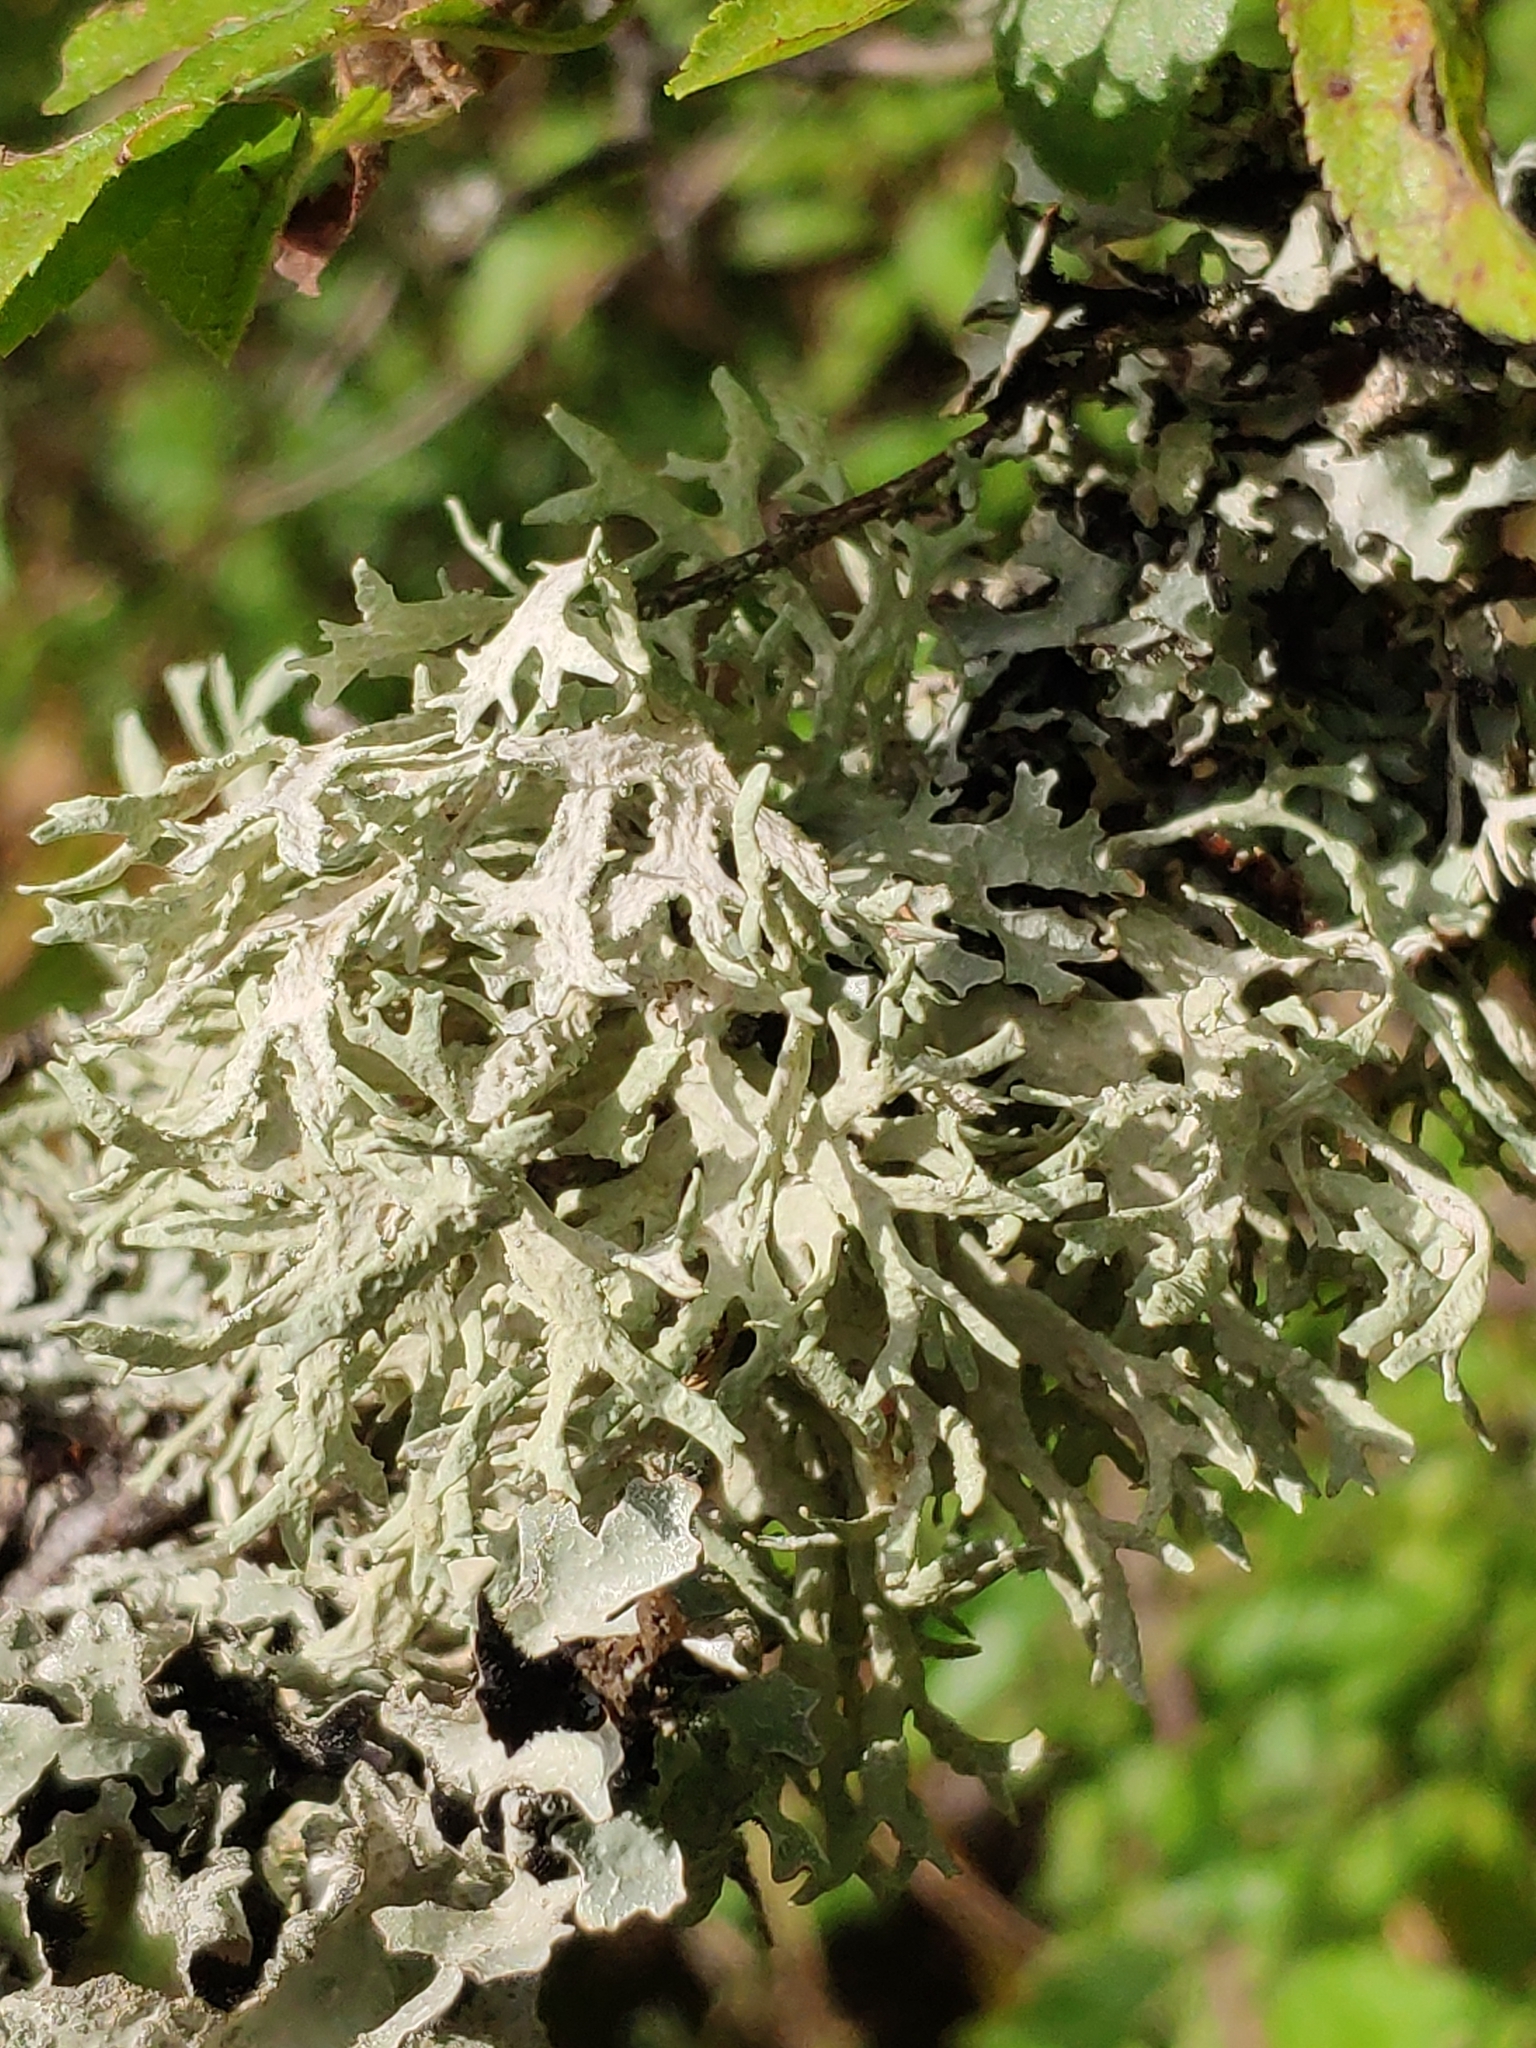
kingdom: Fungi
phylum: Ascomycota
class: Lecanoromycetes
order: Lecanorales
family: Parmeliaceae
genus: Evernia
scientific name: Evernia prunastri
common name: Oak moss
